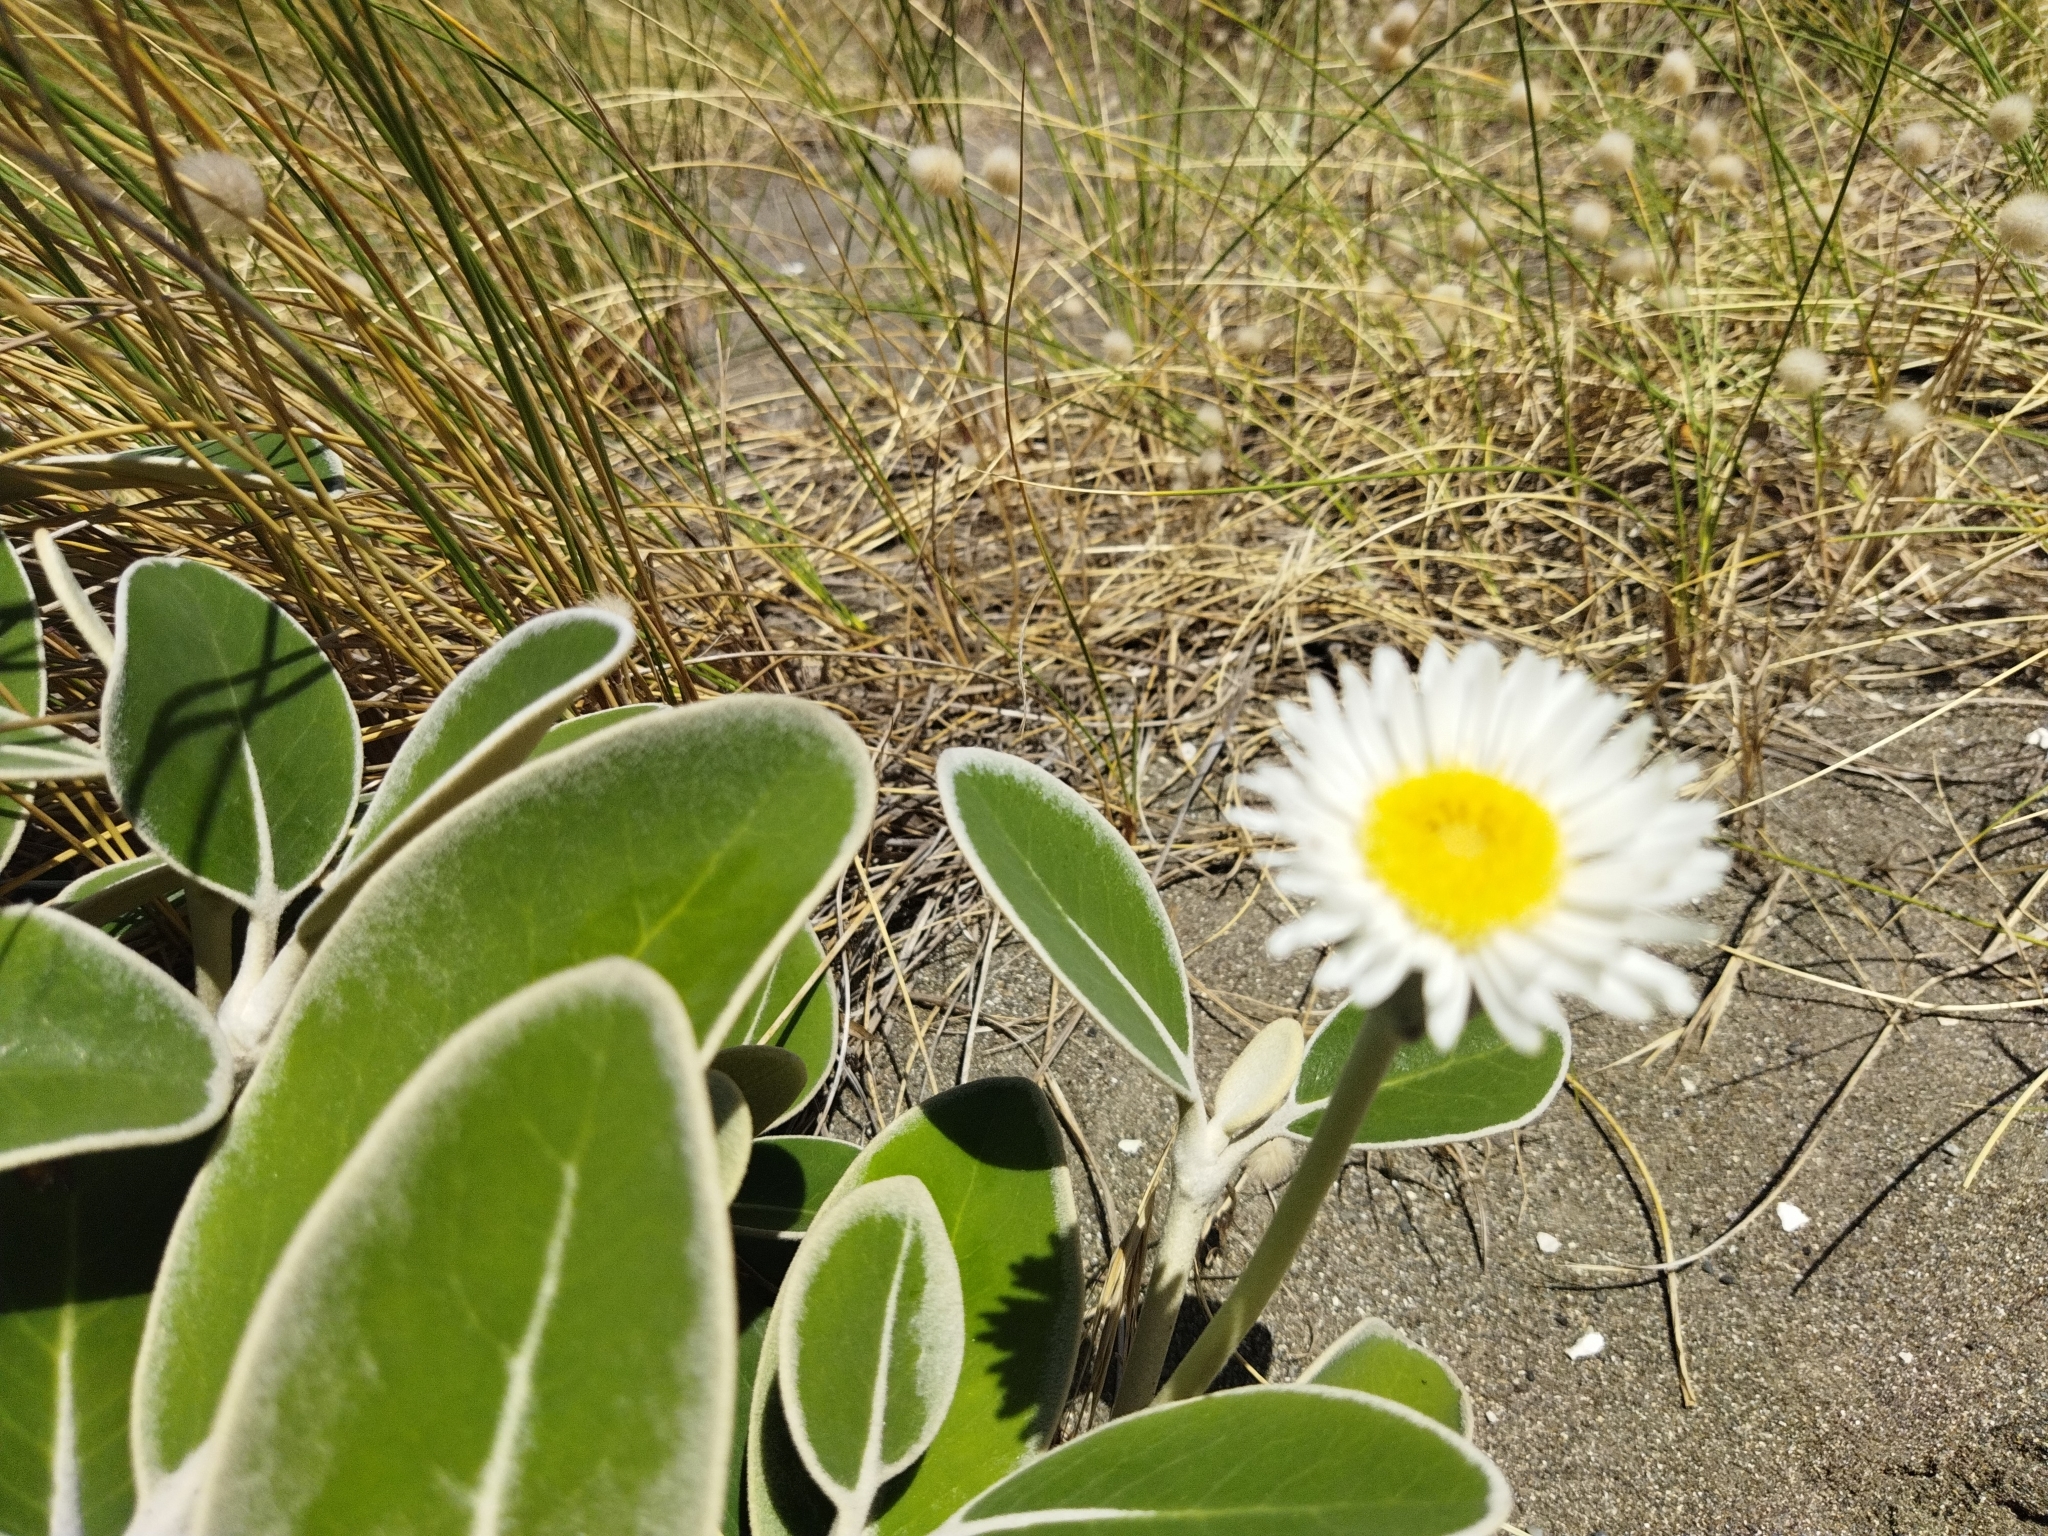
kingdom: Plantae
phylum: Tracheophyta
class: Magnoliopsida
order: Asterales
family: Asteraceae
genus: Pachystegia
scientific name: Pachystegia insignis
